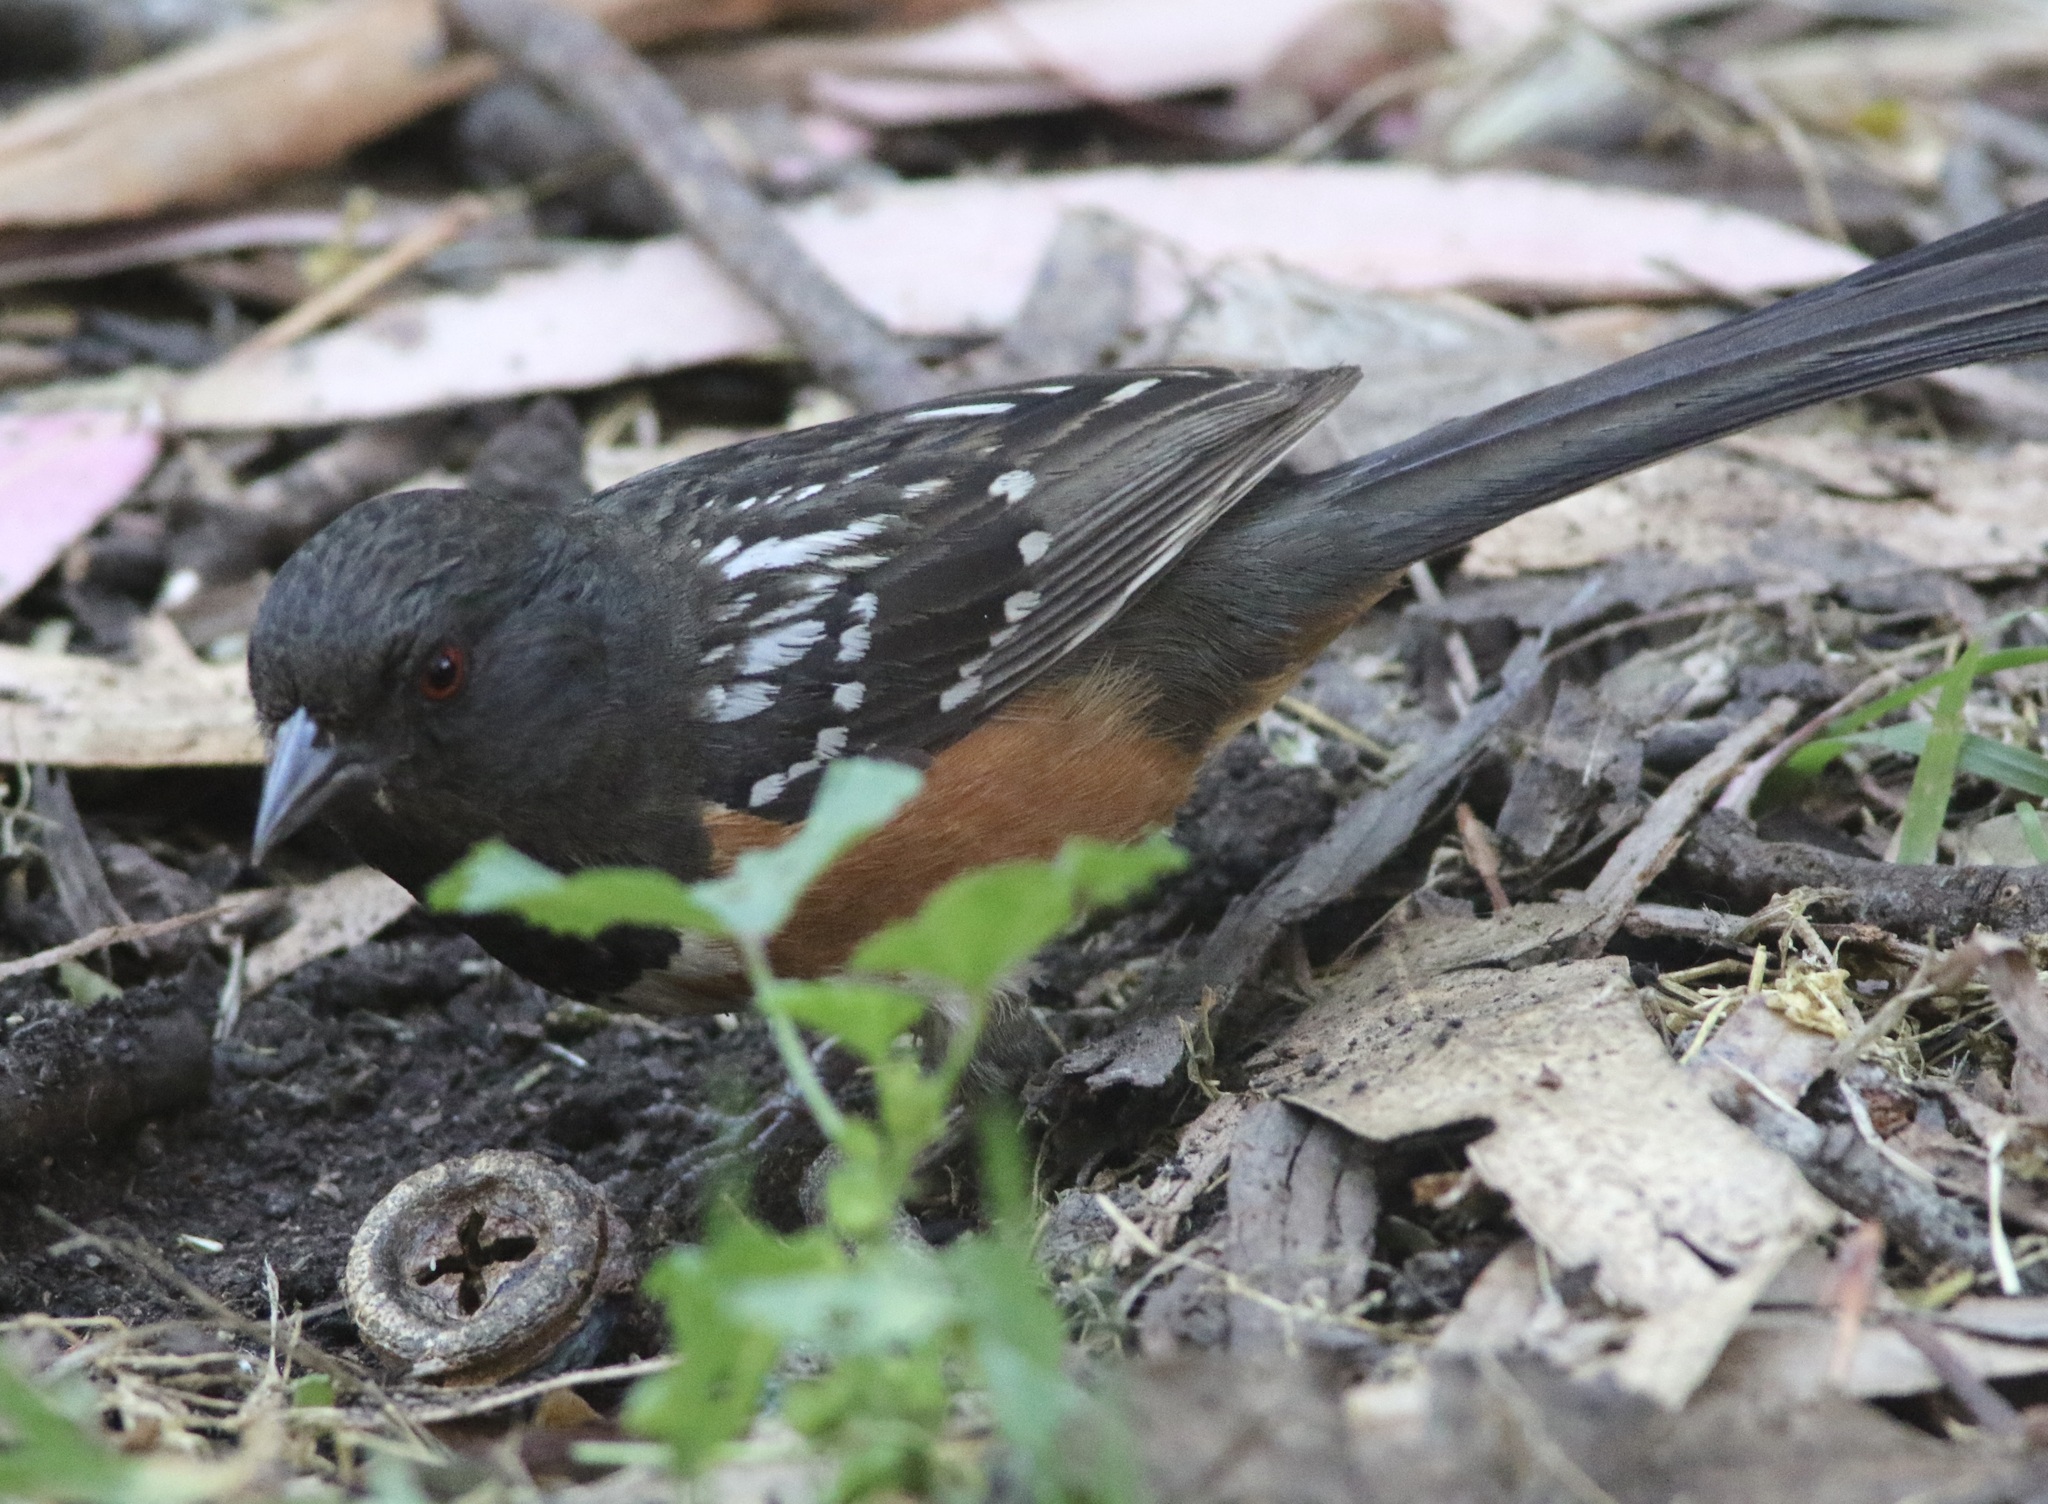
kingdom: Animalia
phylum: Chordata
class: Aves
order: Passeriformes
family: Passerellidae
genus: Pipilo
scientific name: Pipilo maculatus
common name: Spotted towhee
